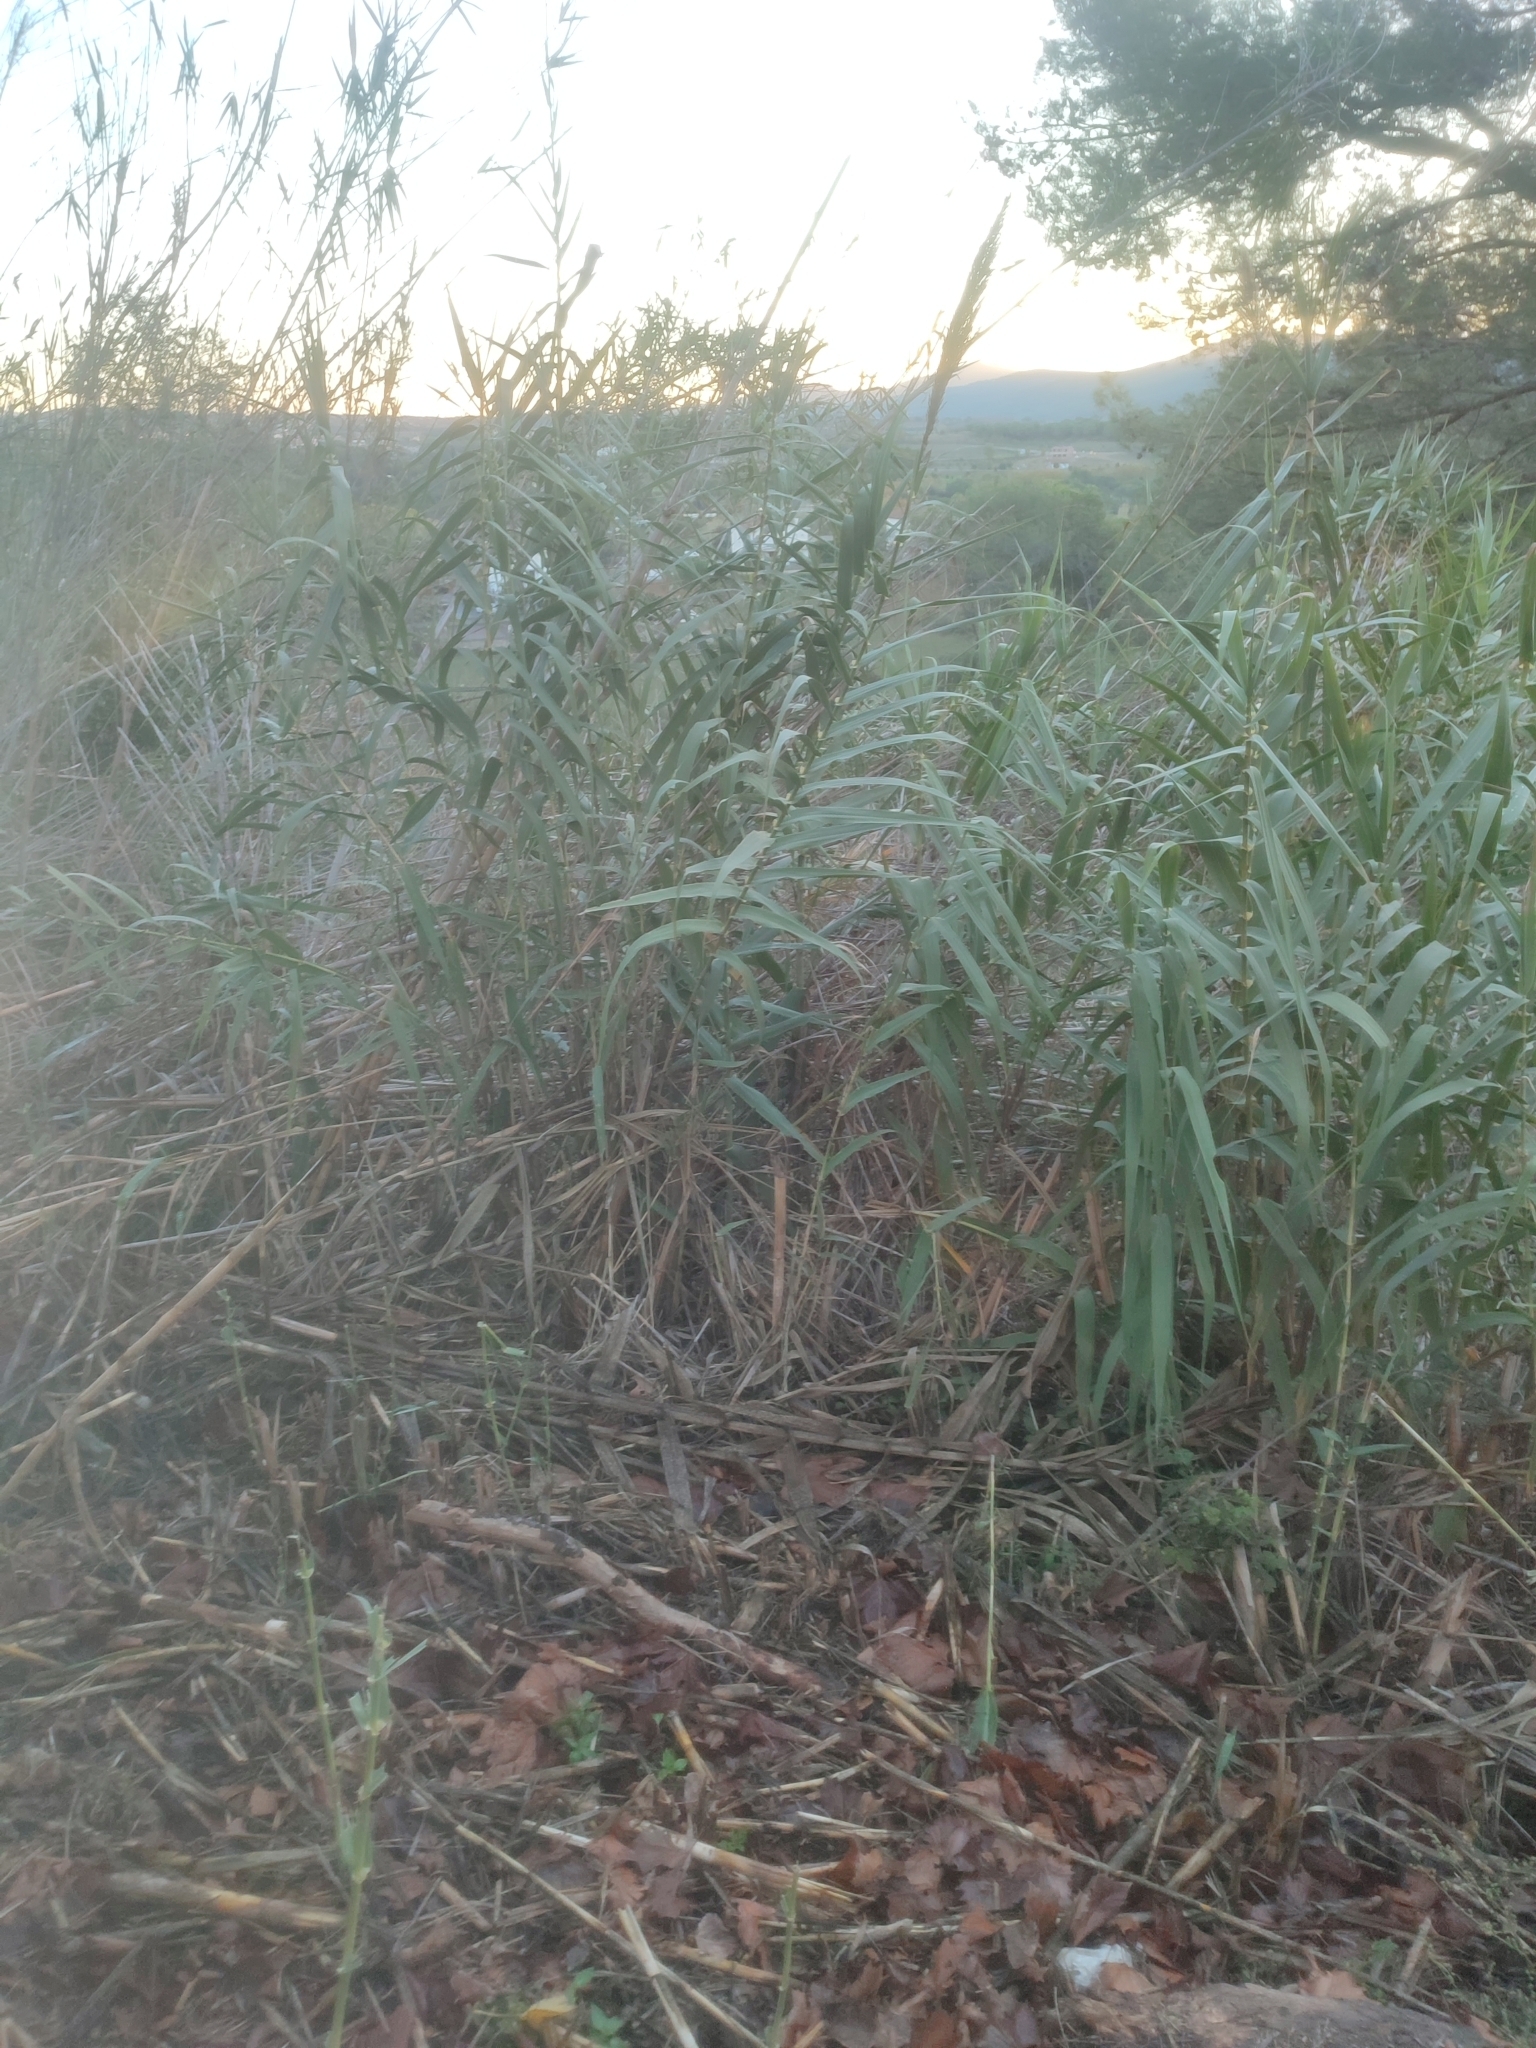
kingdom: Plantae
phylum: Tracheophyta
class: Liliopsida
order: Poales
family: Poaceae
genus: Arundo
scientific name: Arundo donax
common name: Giant reed
